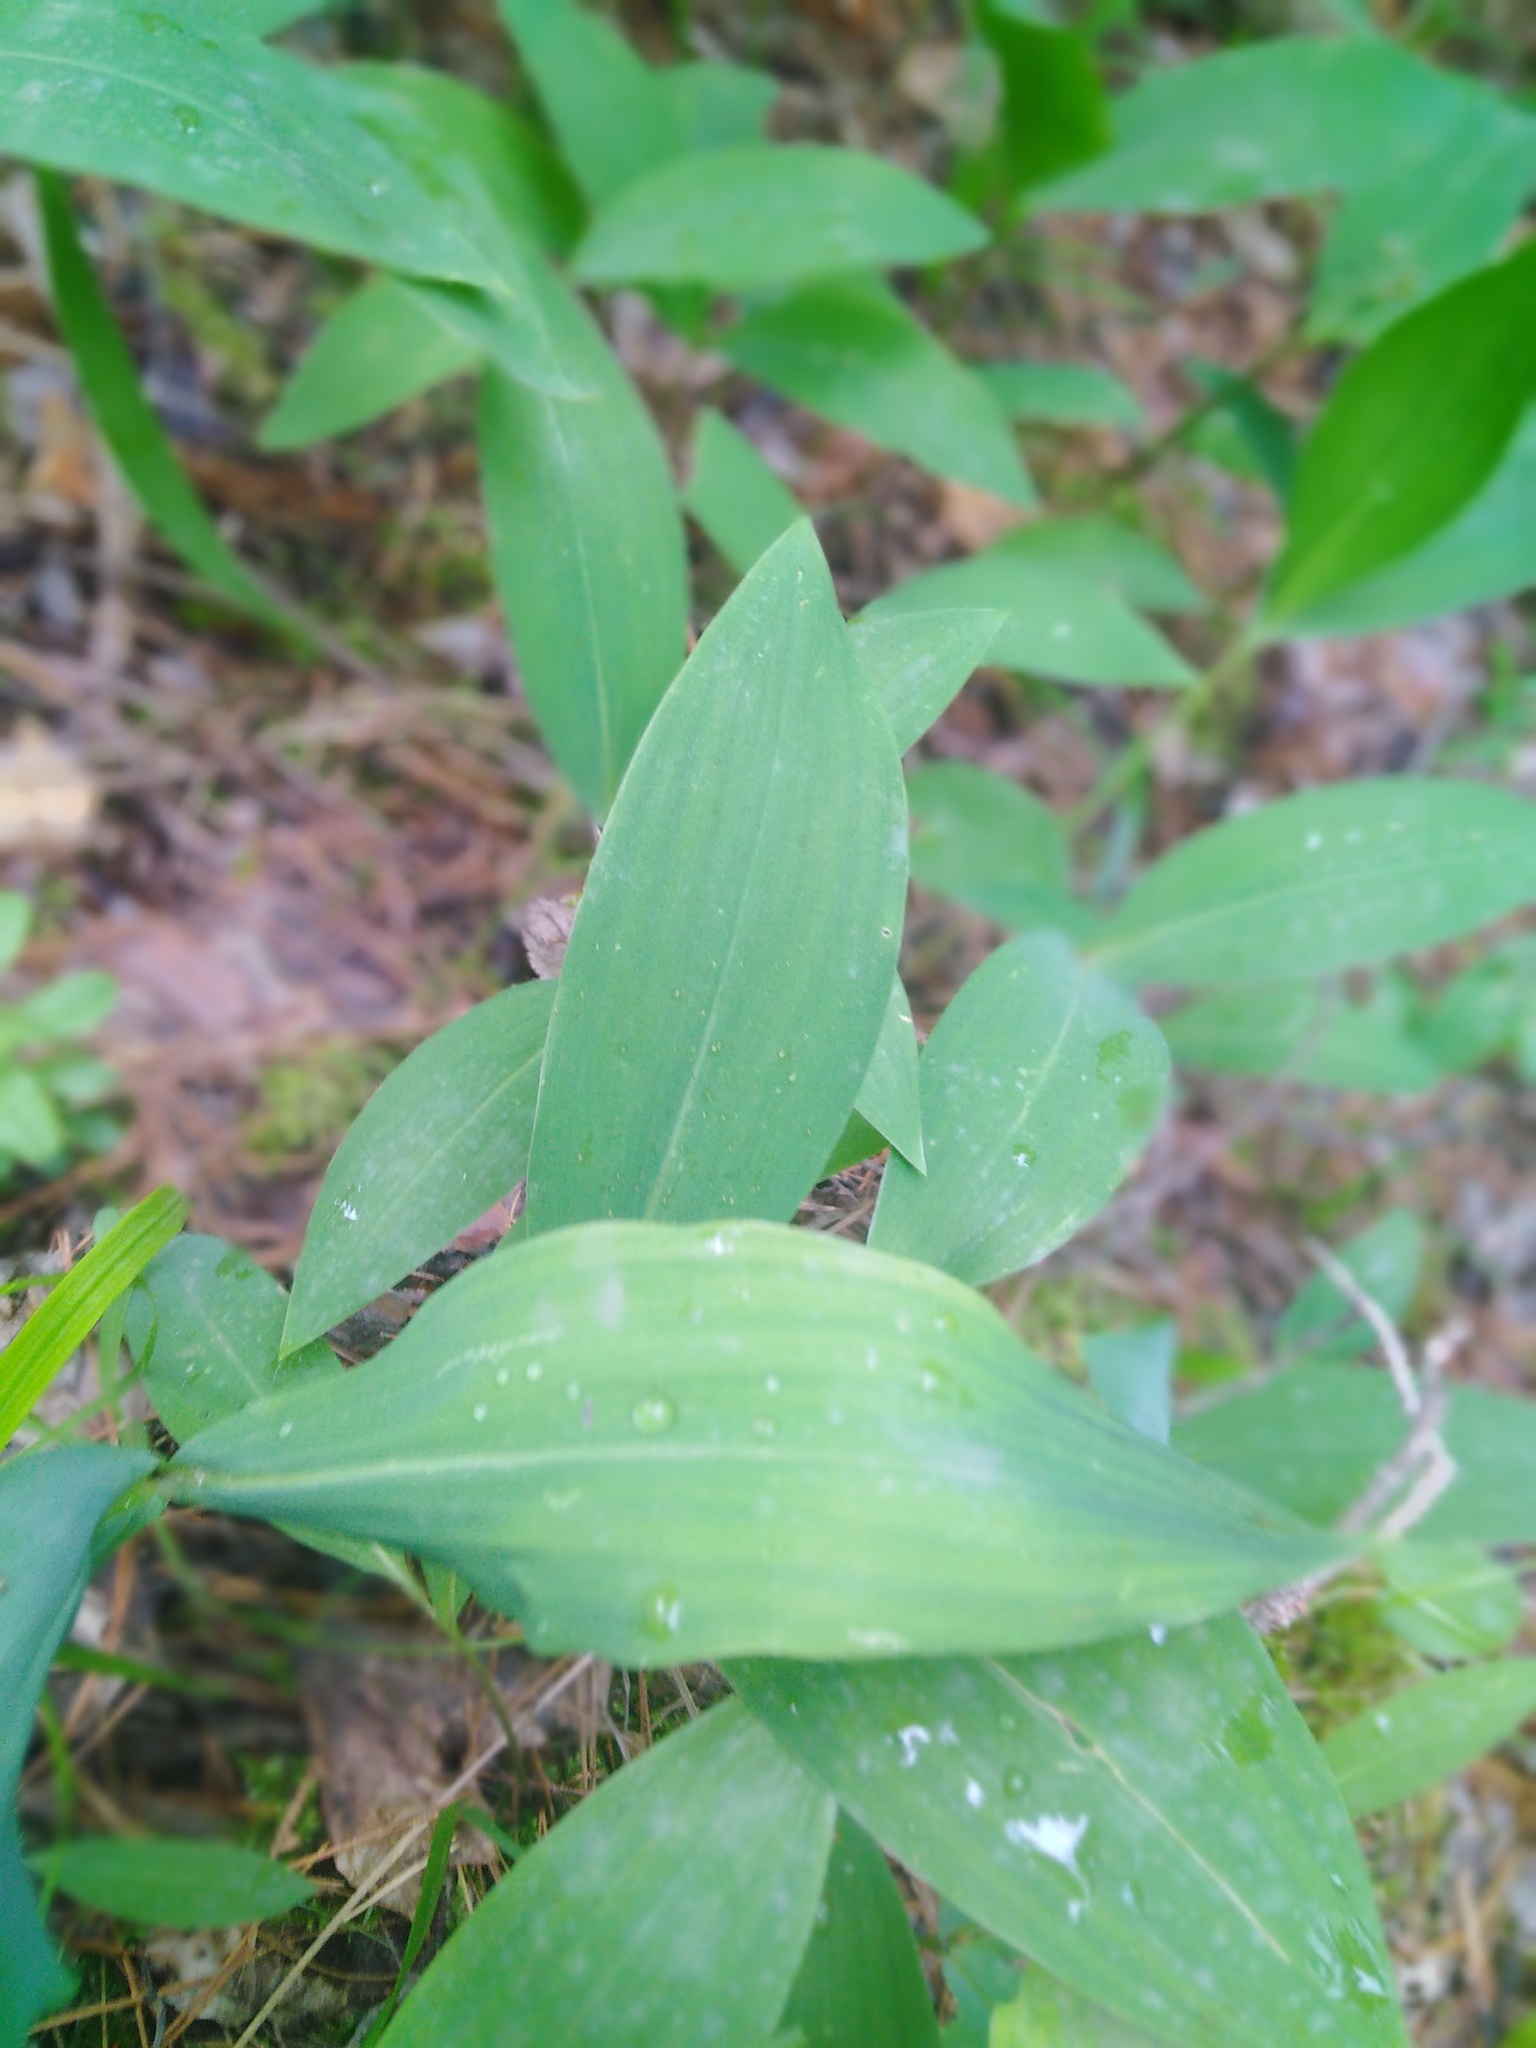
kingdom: Plantae
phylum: Tracheophyta
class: Liliopsida
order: Asparagales
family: Asparagaceae
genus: Convallaria
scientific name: Convallaria majalis
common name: Lily-of-the-valley
